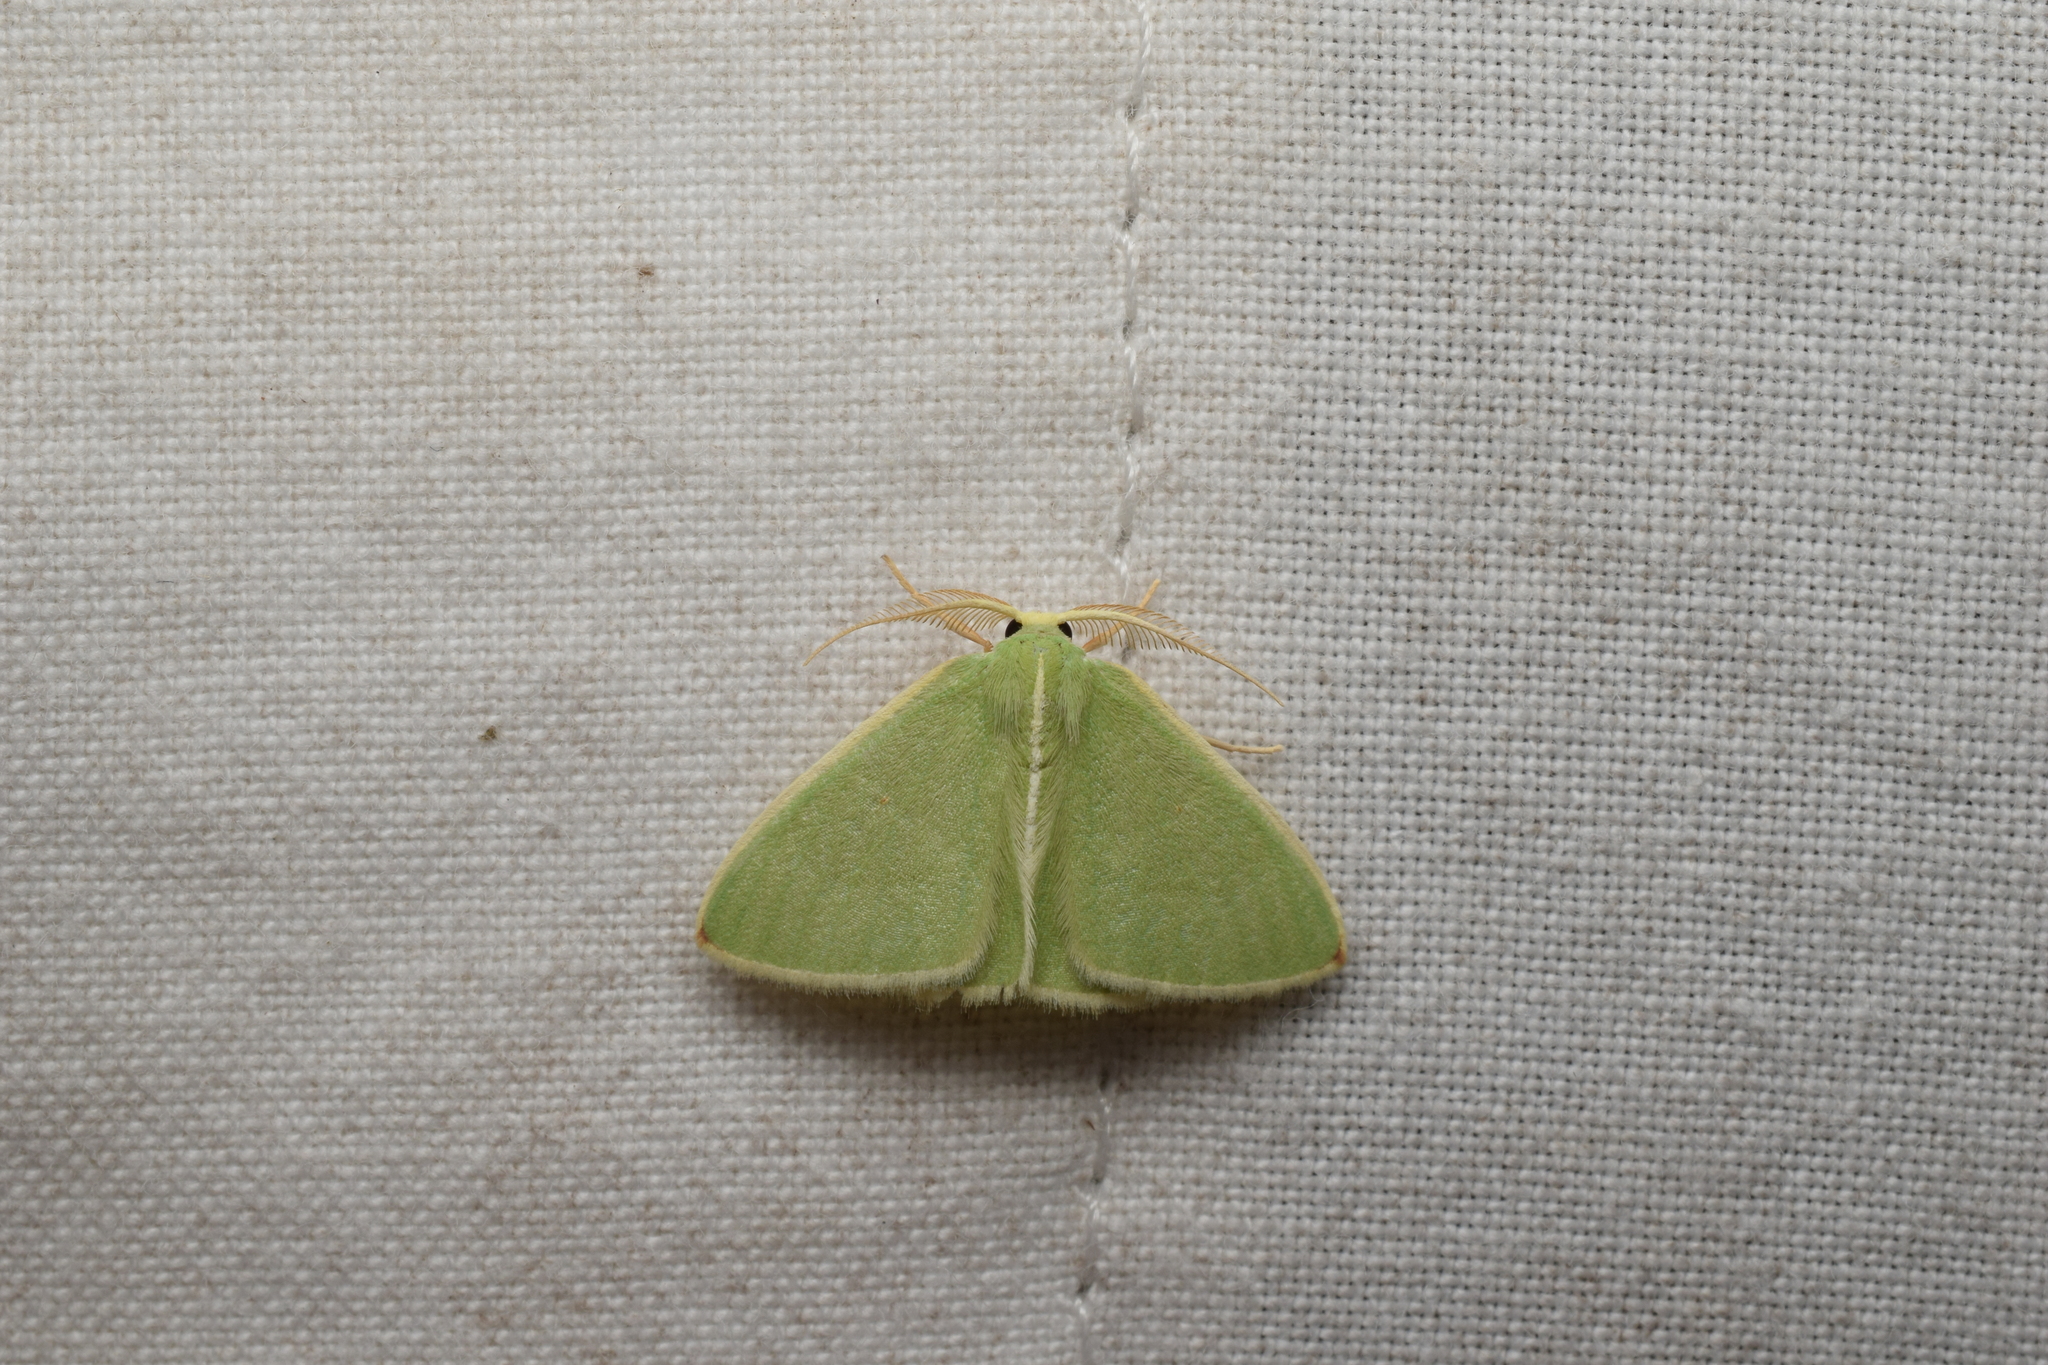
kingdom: Animalia
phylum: Arthropoda
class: Insecta
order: Lepidoptera
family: Geometridae
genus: Comostola
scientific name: Comostola rubripunctata
